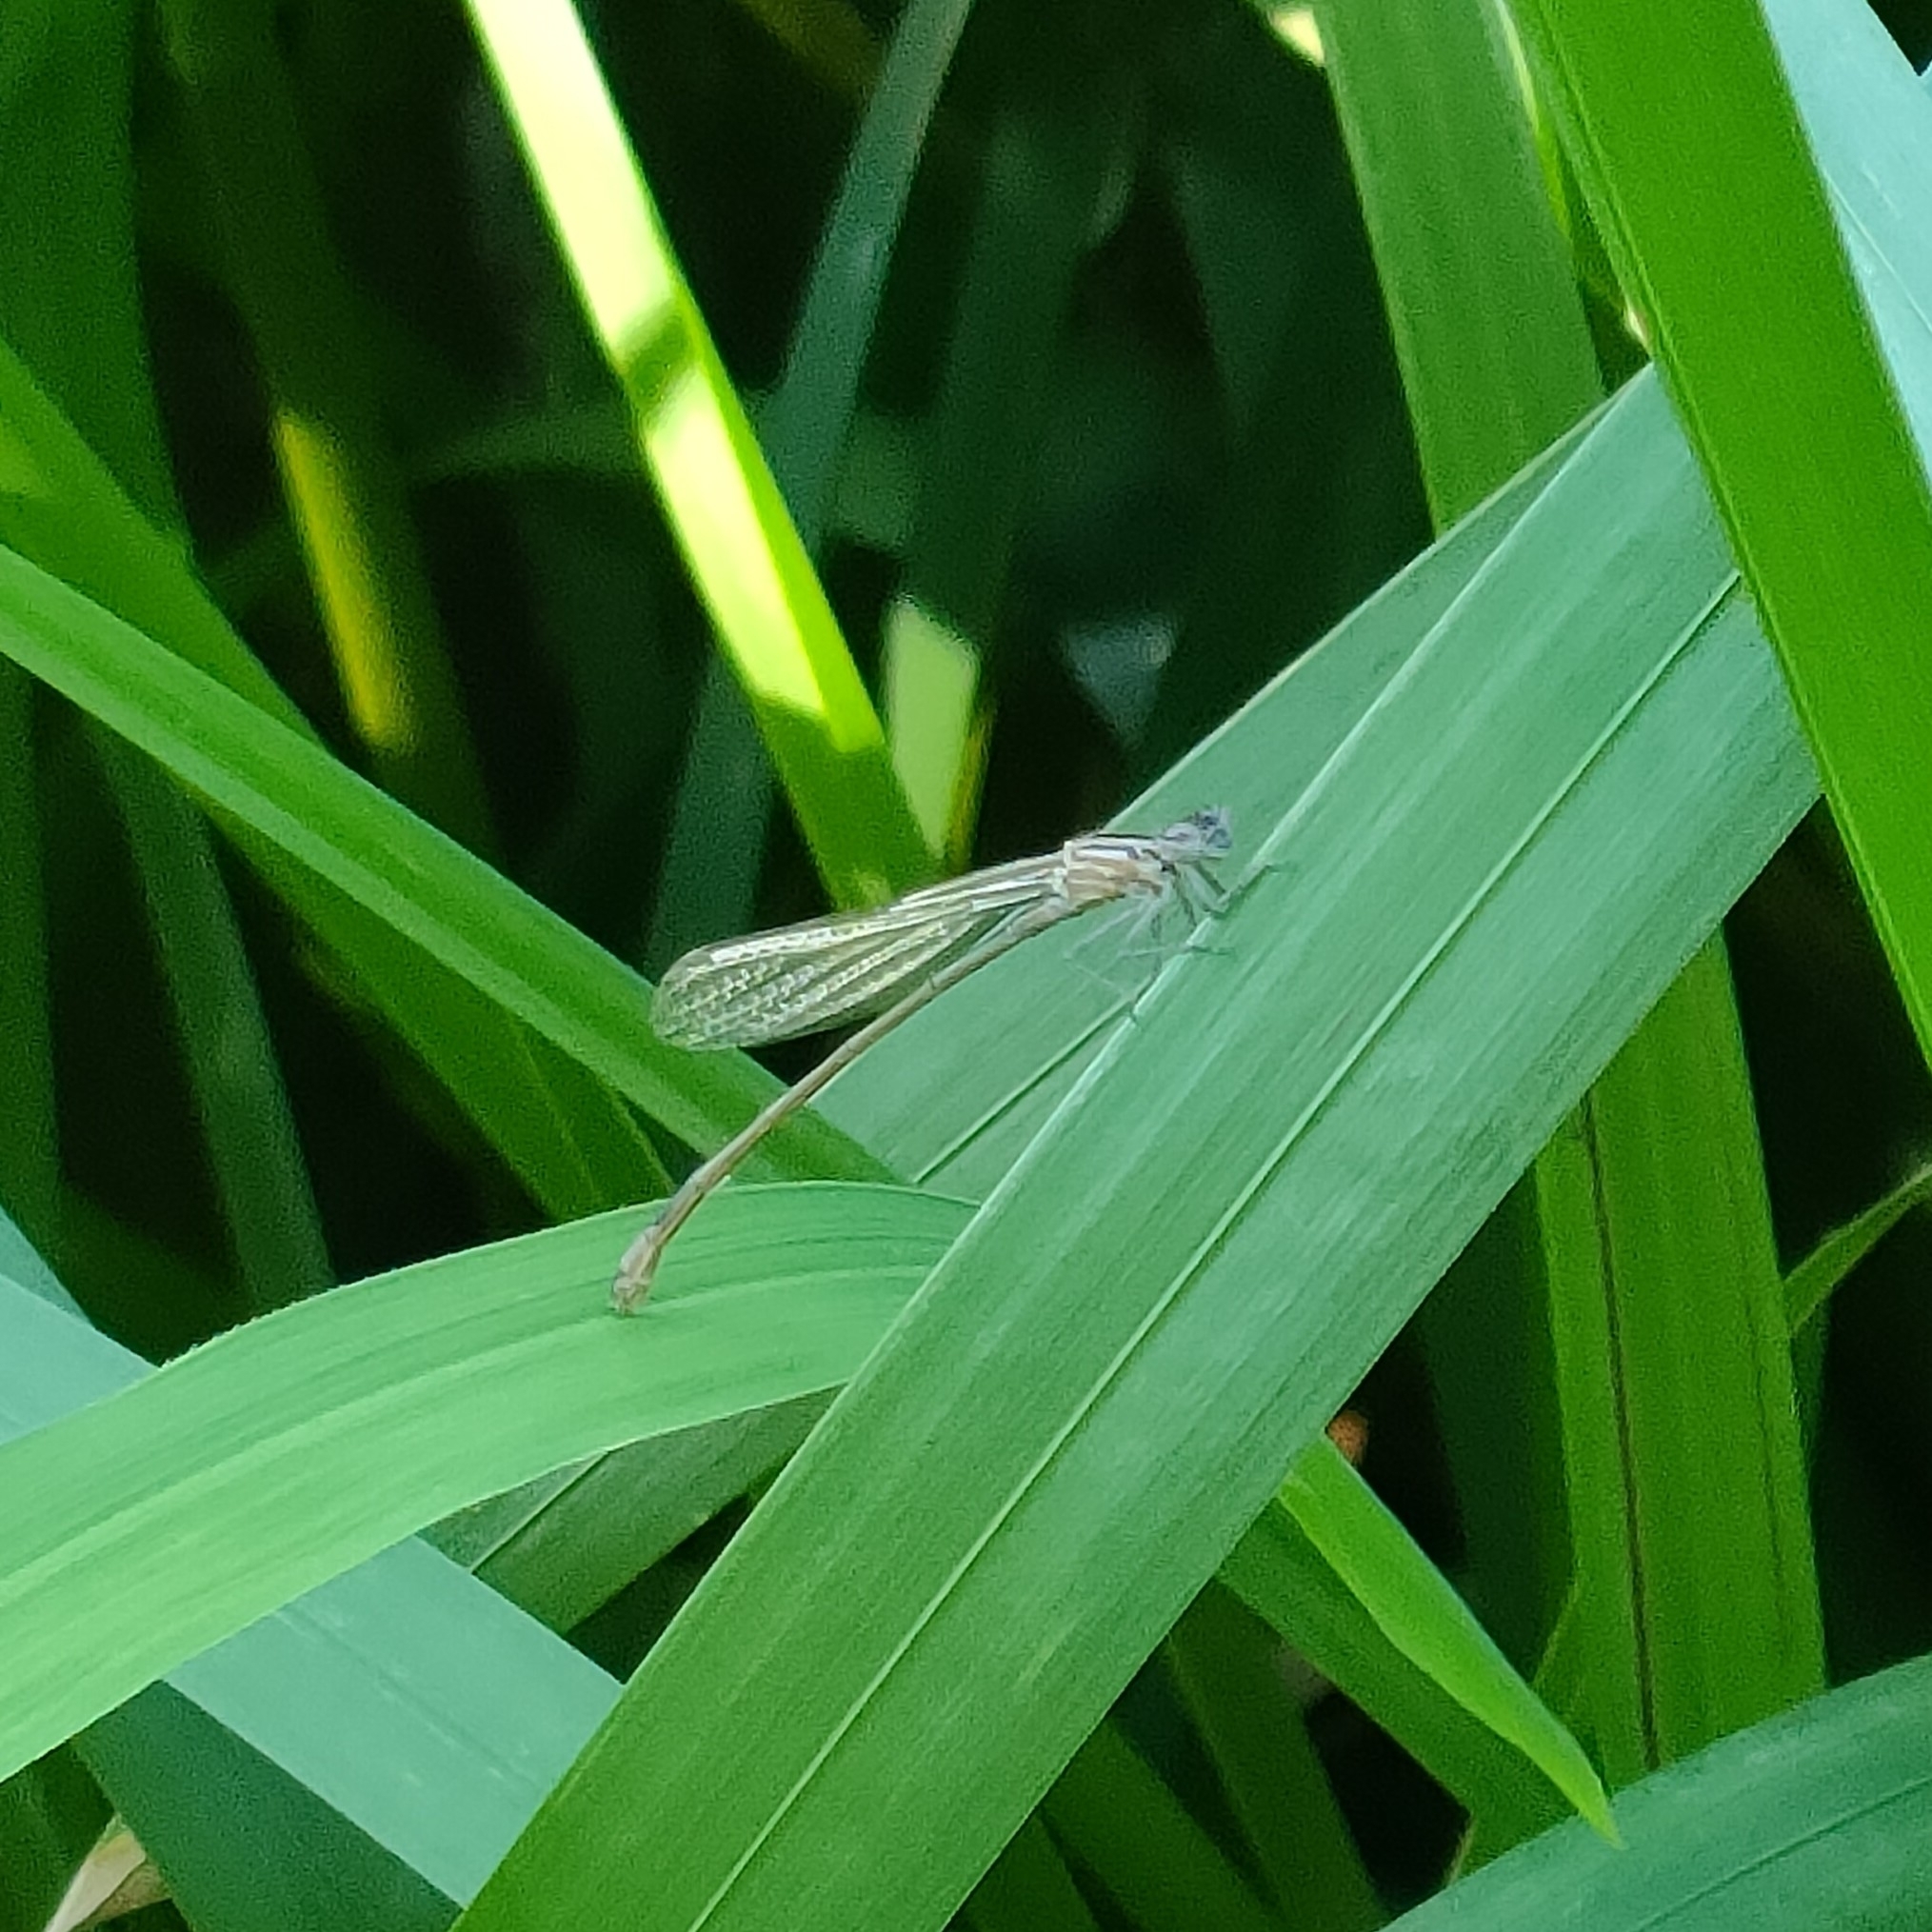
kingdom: Animalia
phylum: Arthropoda
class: Insecta
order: Odonata
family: Coenagrionidae
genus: Ischnura
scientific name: Ischnura elegans
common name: Blue-tailed damselfly
